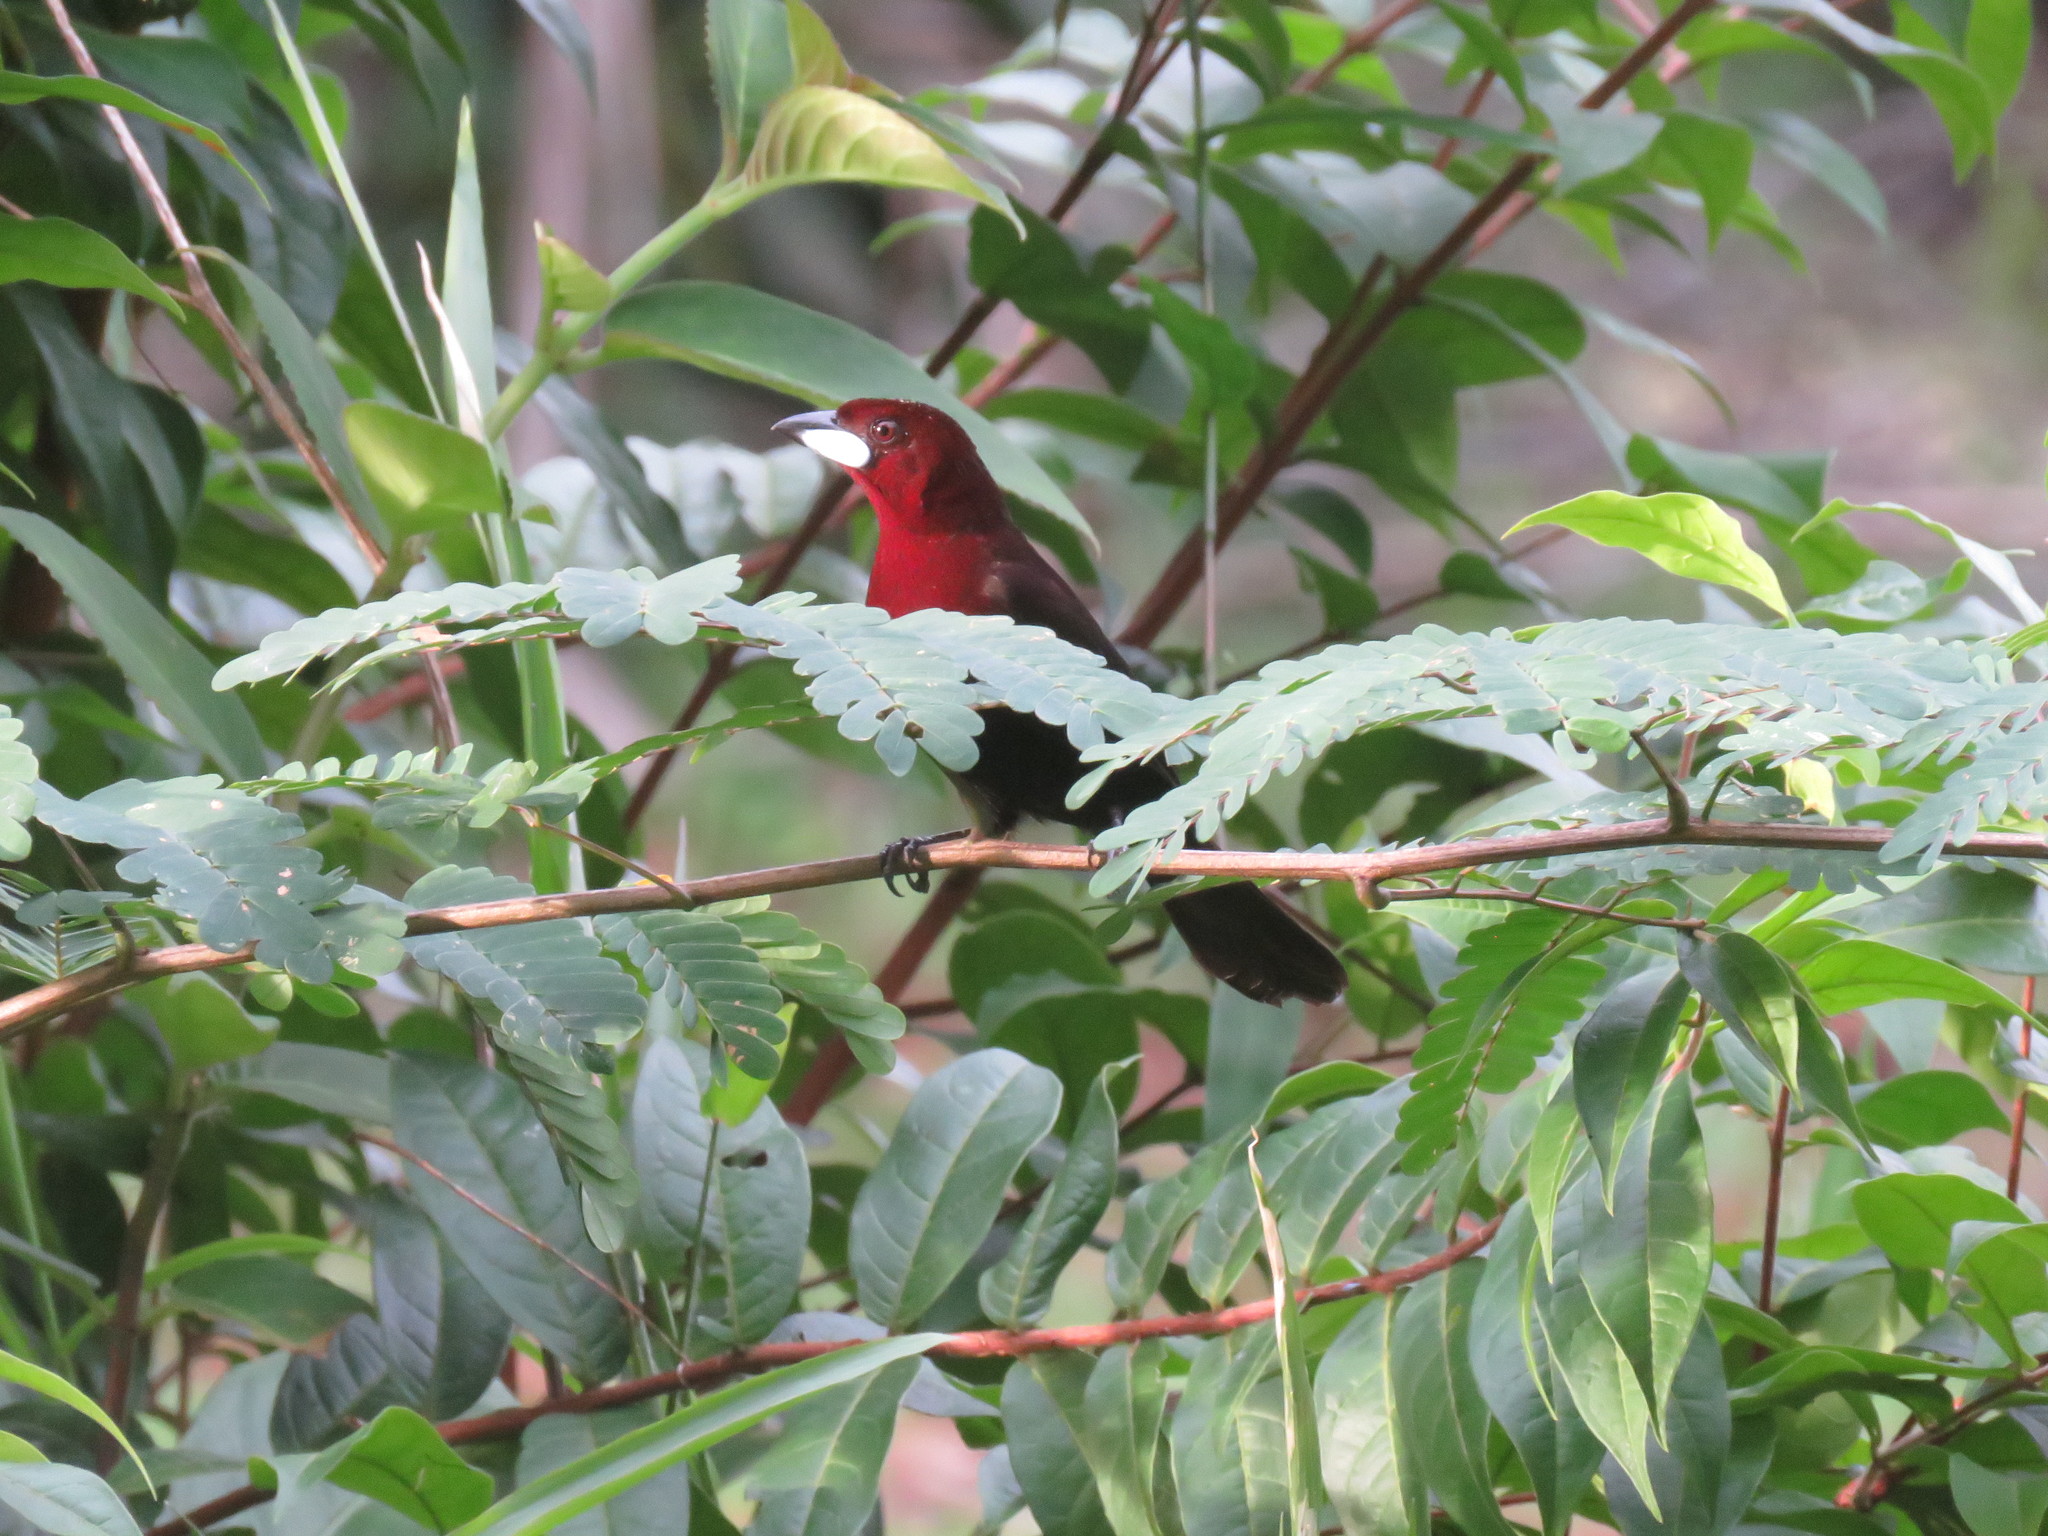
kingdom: Animalia
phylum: Chordata
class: Aves
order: Passeriformes
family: Thraupidae
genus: Ramphocelus
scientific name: Ramphocelus carbo
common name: Silver-beaked tanager
